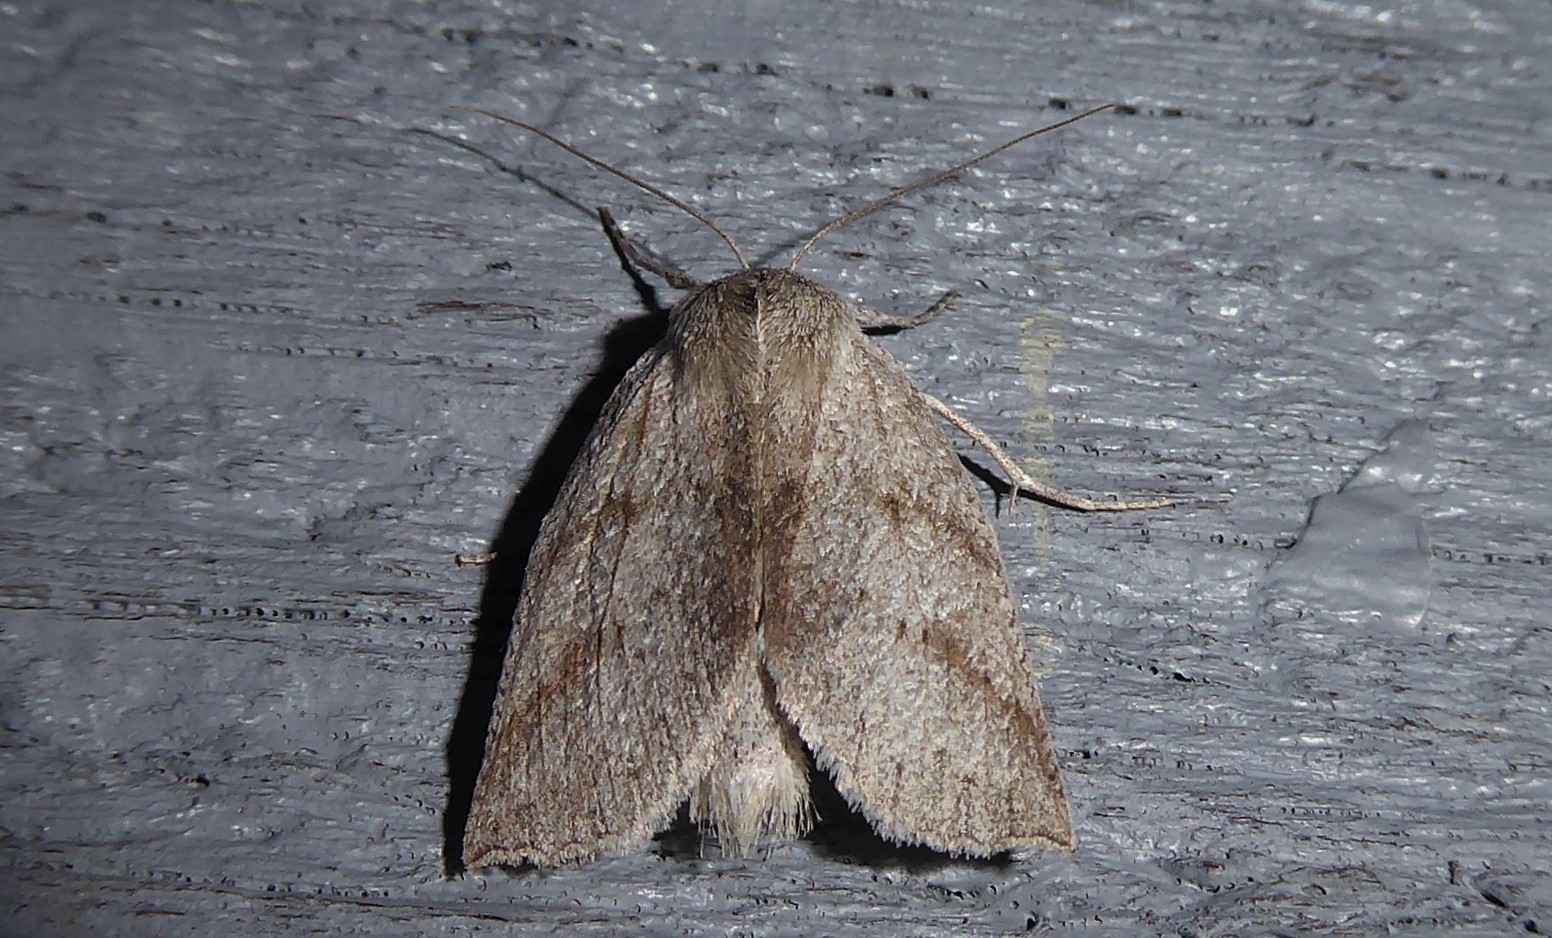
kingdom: Animalia
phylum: Arthropoda
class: Insecta
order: Lepidoptera
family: Geometridae
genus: Declana
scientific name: Declana leptomera
